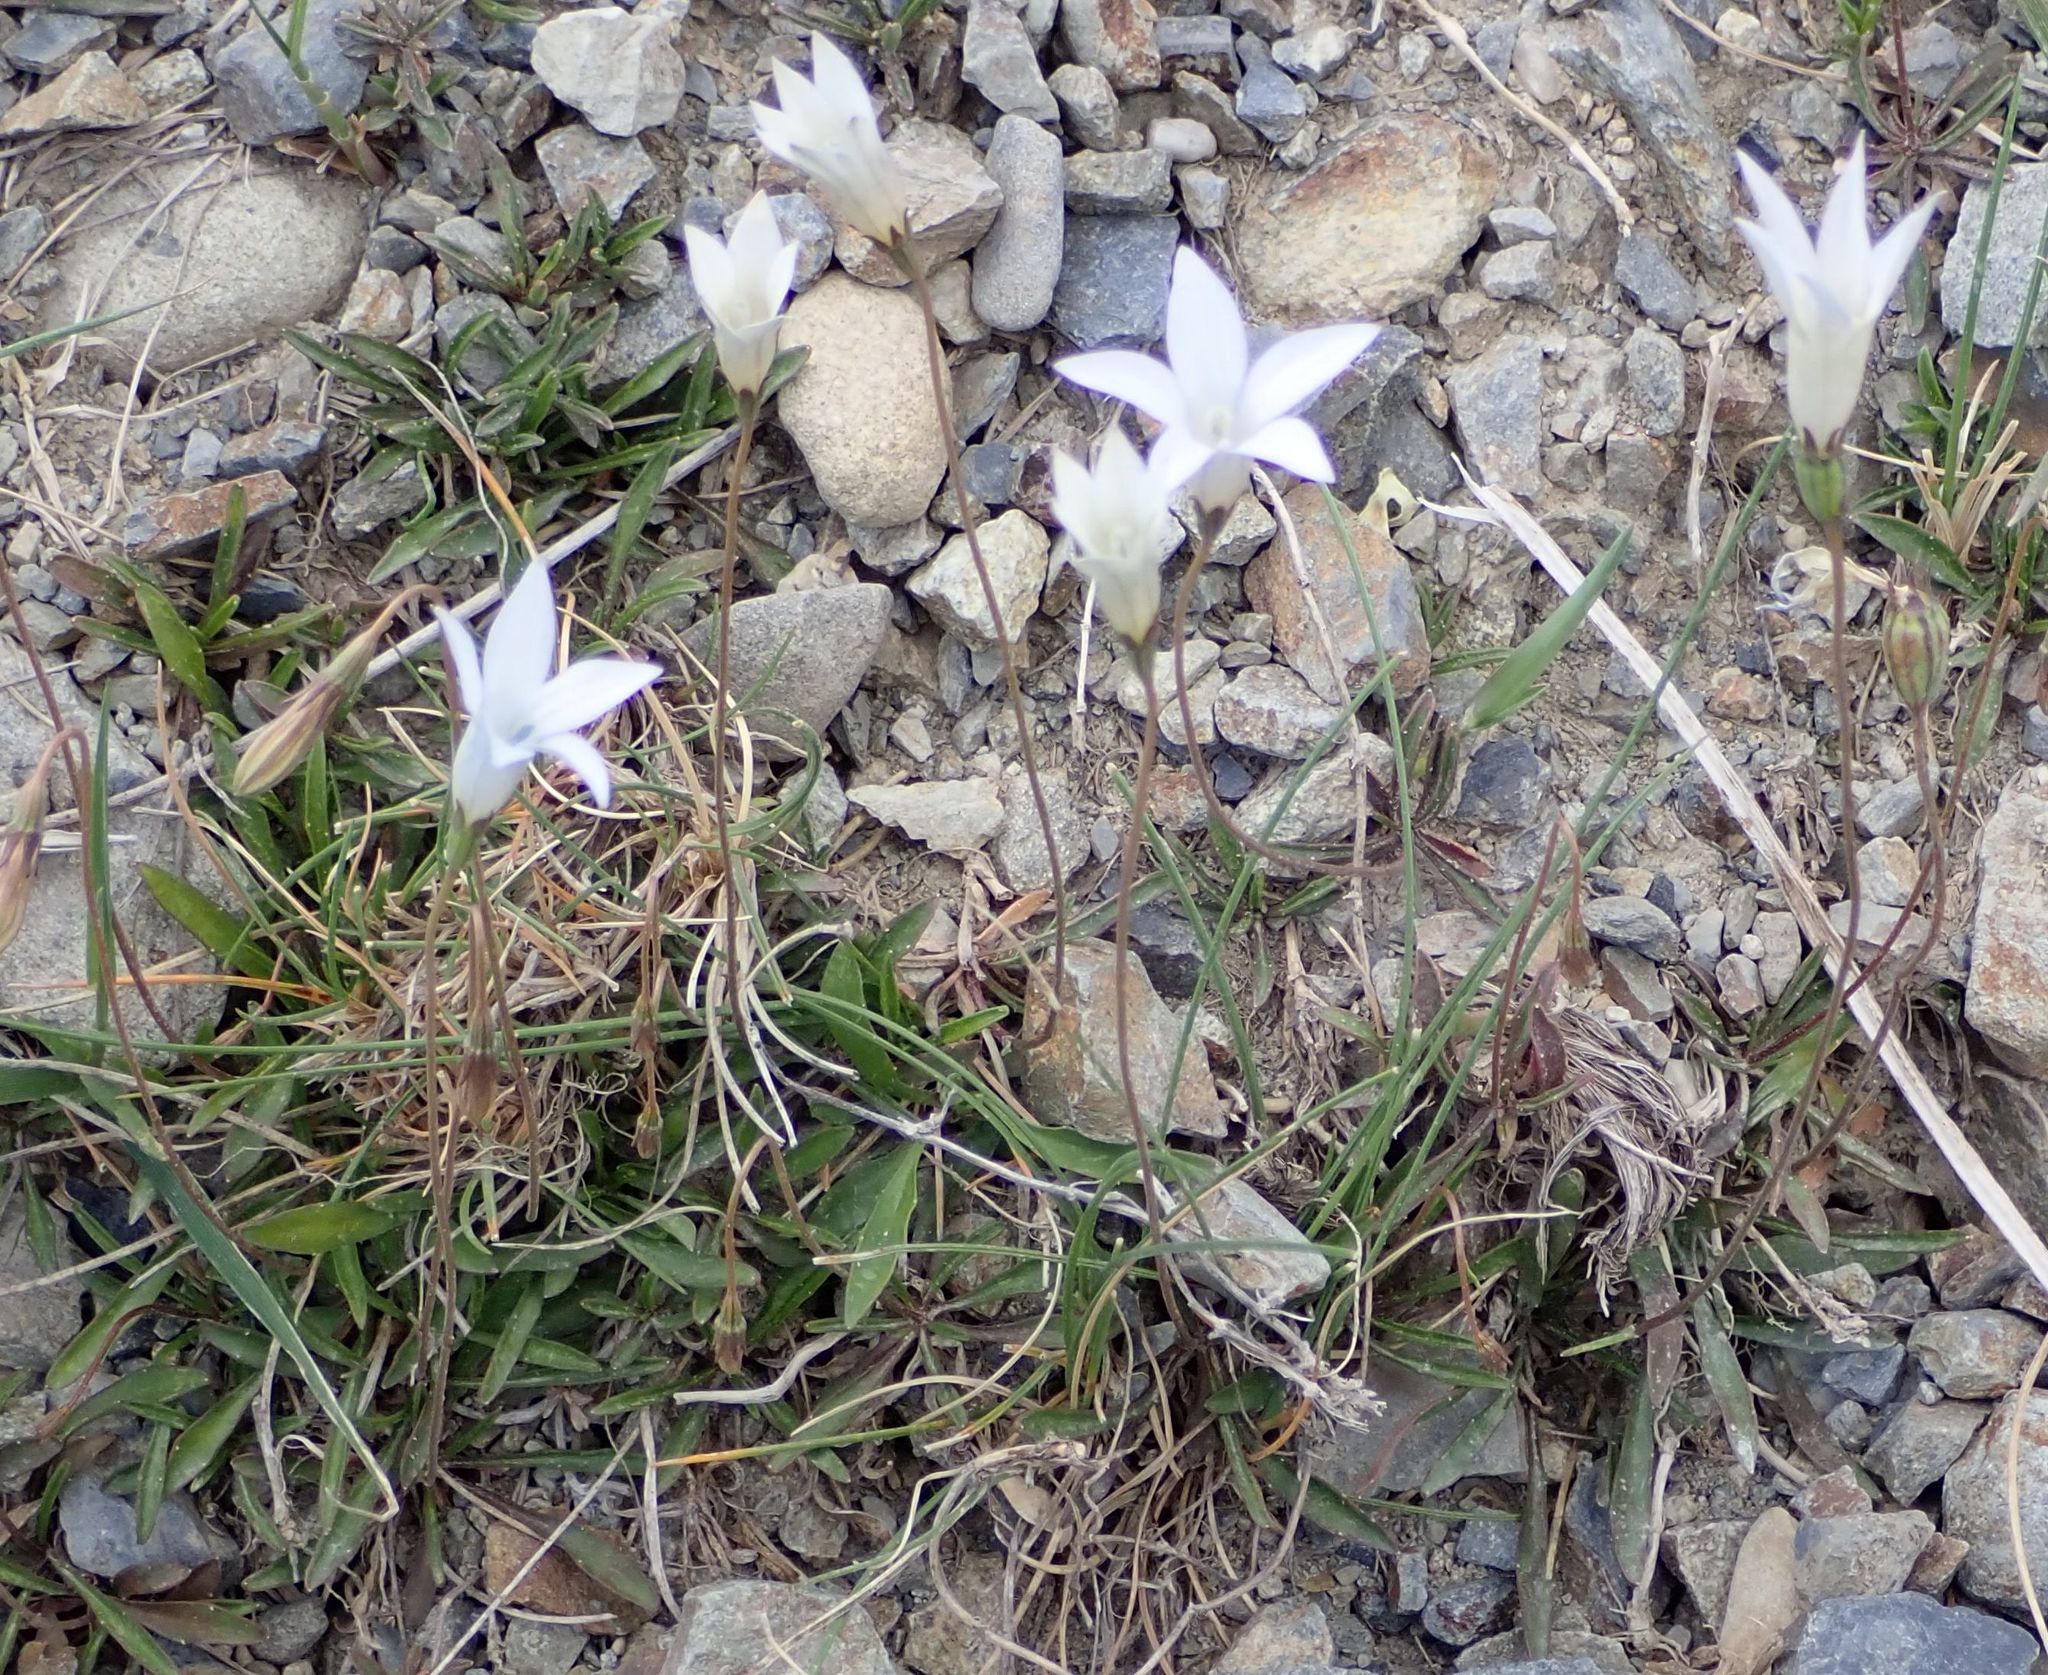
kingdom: Plantae
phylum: Tracheophyta
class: Magnoliopsida
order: Asterales
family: Campanulaceae
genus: Wahlenbergia
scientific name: Wahlenbergia albomarginata
